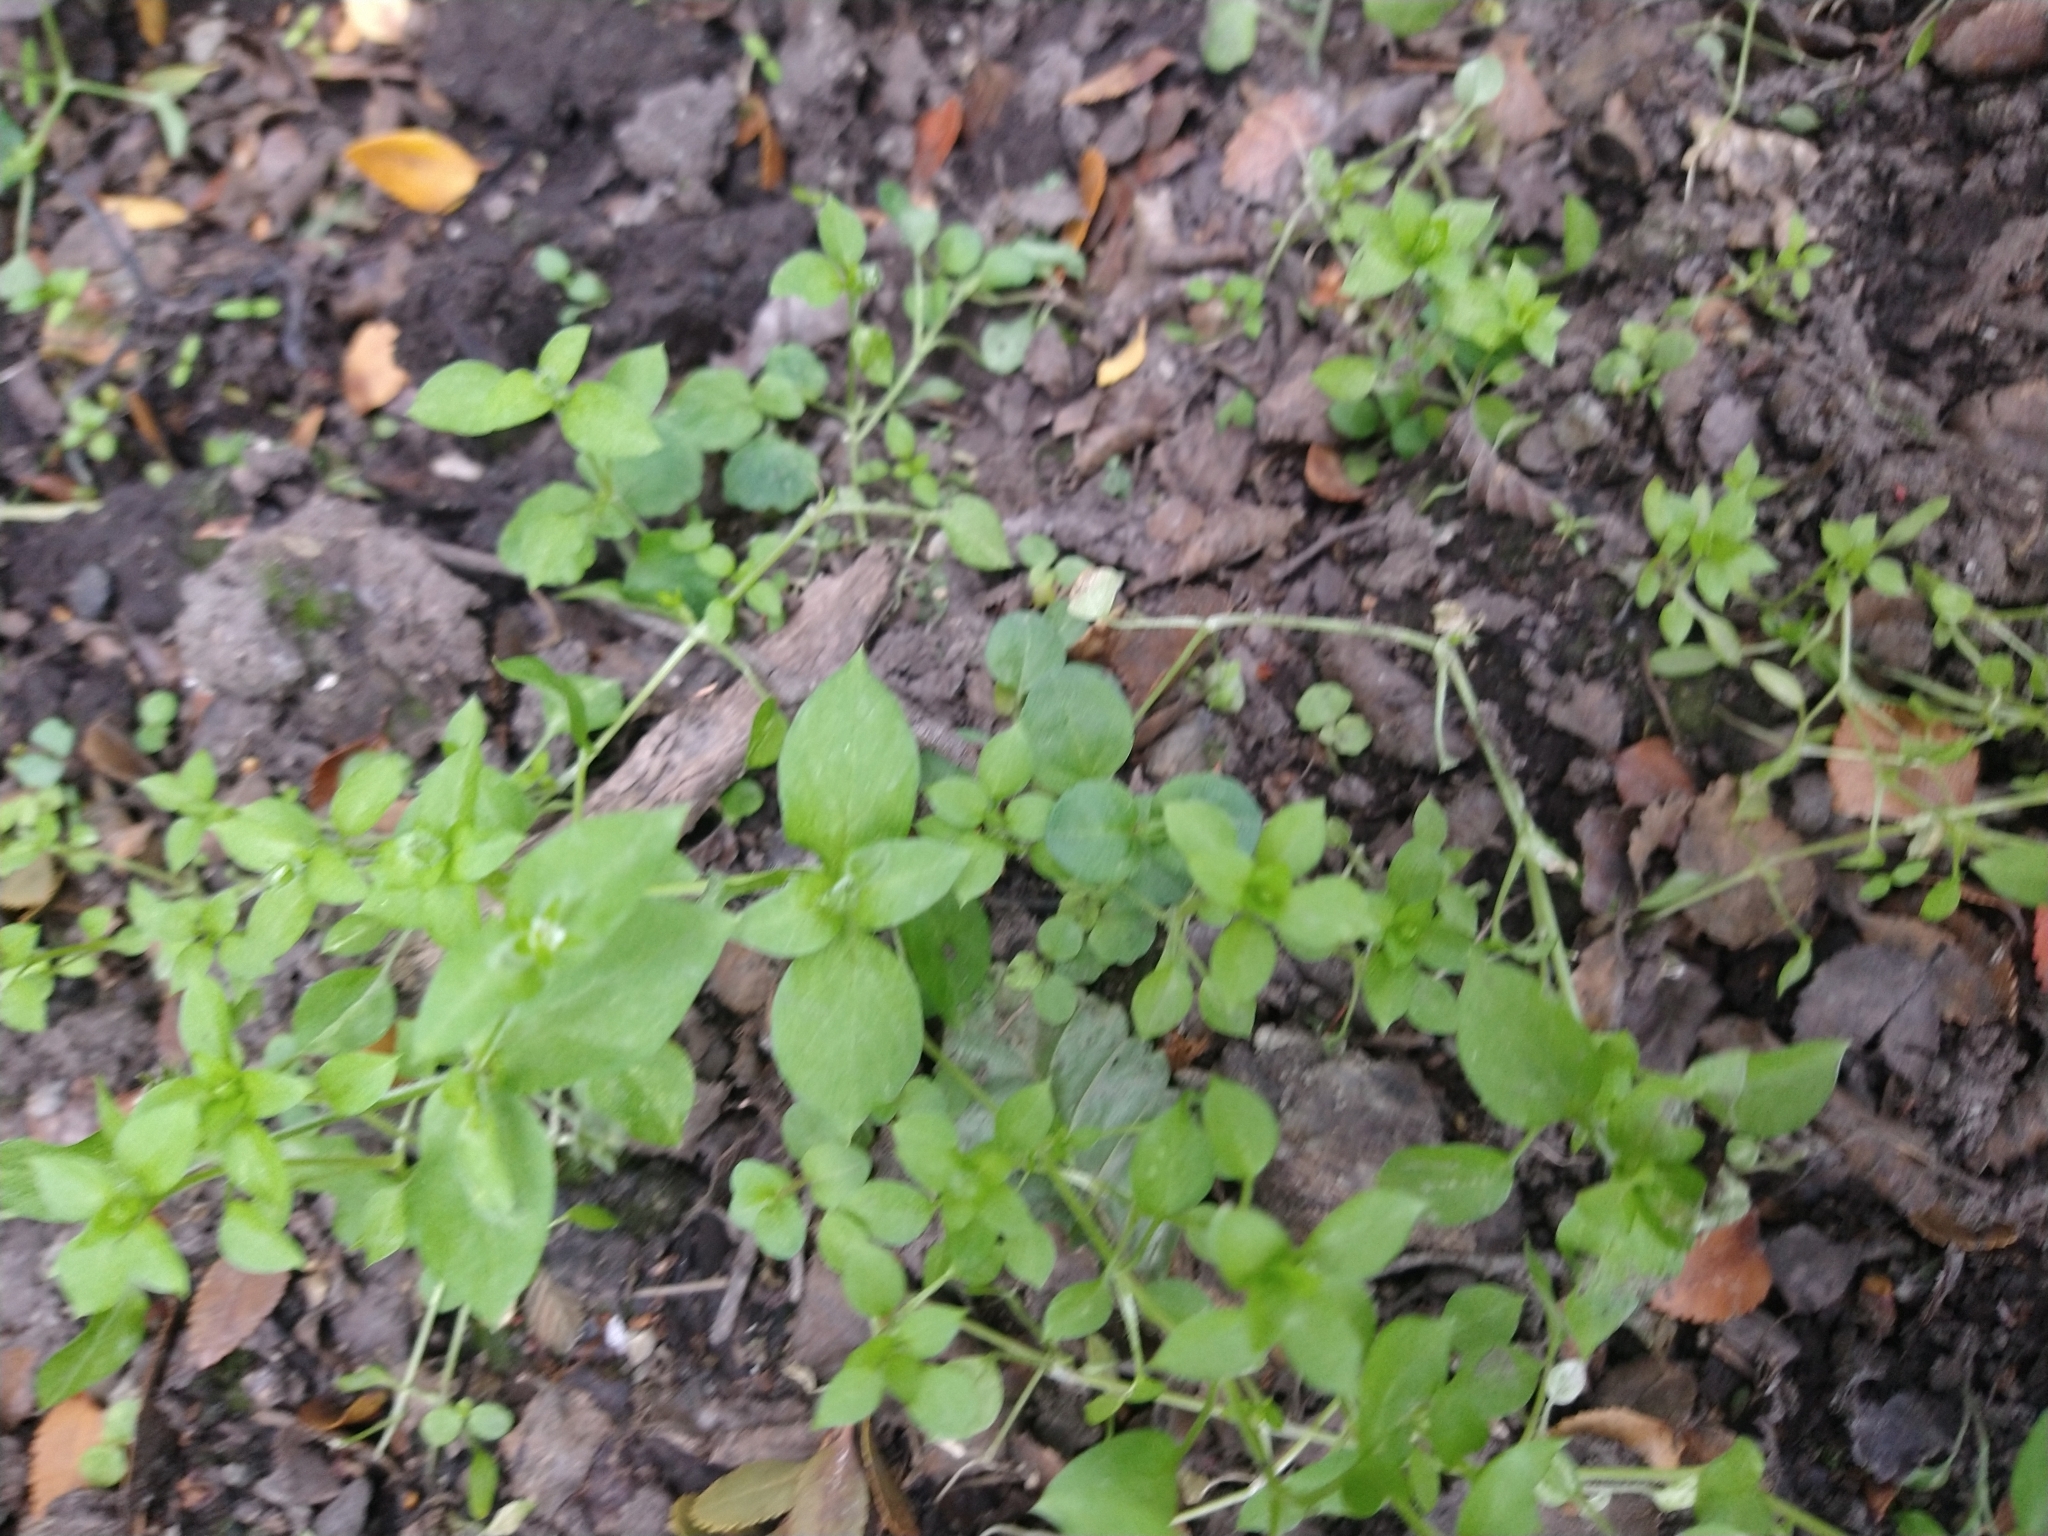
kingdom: Plantae
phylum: Tracheophyta
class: Magnoliopsida
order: Caryophyllales
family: Caryophyllaceae
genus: Stellaria
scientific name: Stellaria media
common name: Common chickweed
